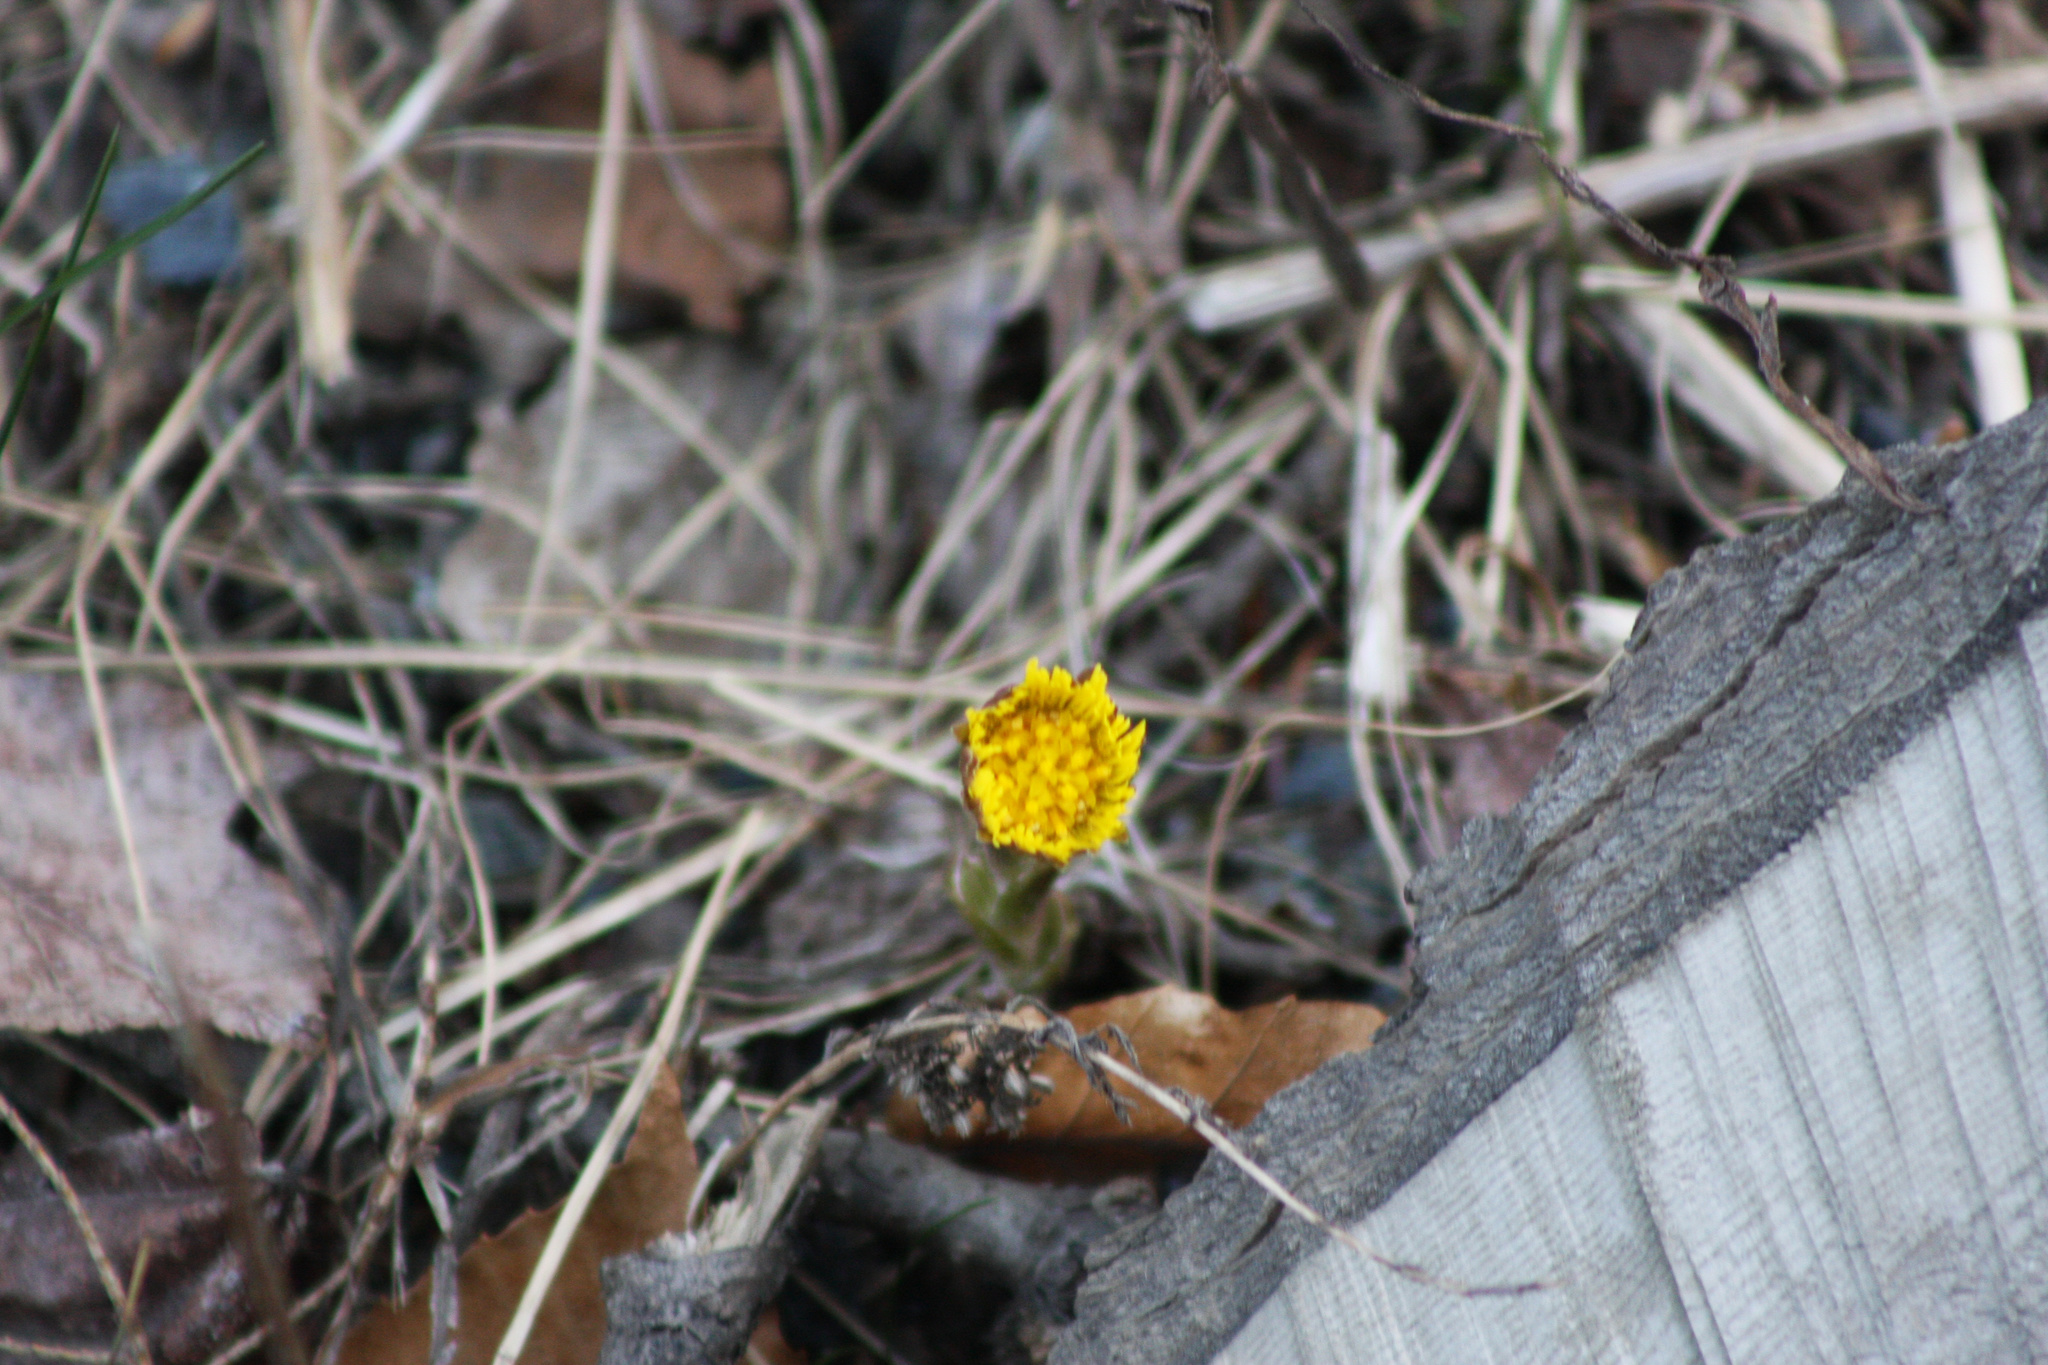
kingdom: Plantae
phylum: Tracheophyta
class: Magnoliopsida
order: Asterales
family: Asteraceae
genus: Tussilago
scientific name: Tussilago farfara
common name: Coltsfoot
